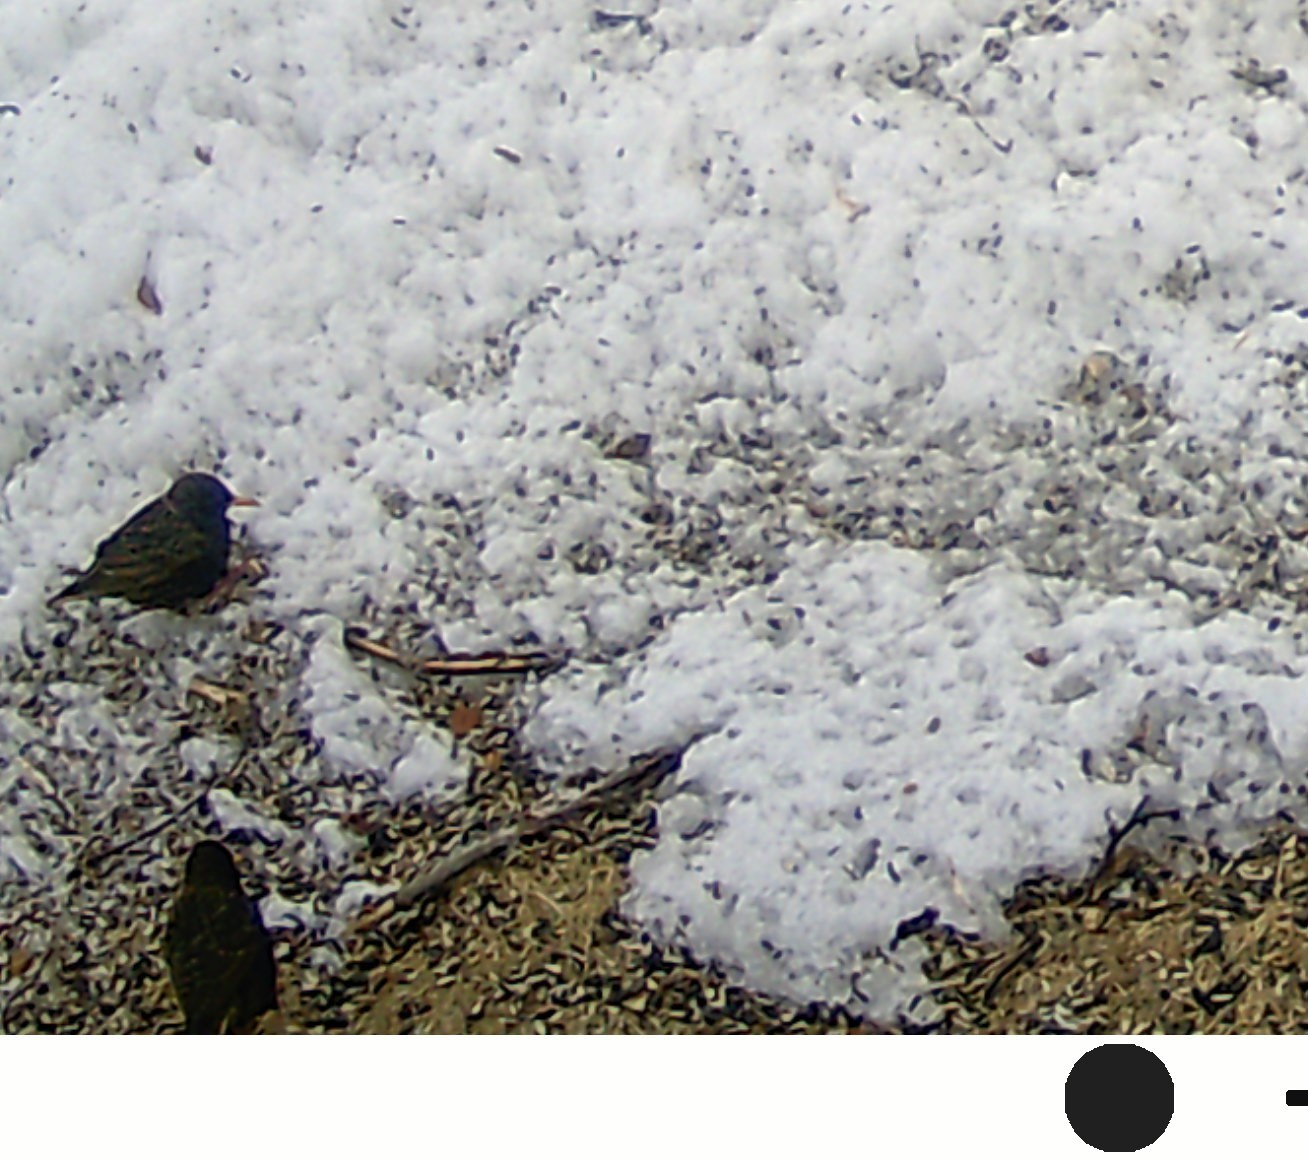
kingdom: Animalia
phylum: Chordata
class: Aves
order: Passeriformes
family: Sturnidae
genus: Sturnus
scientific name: Sturnus vulgaris
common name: Common starling
